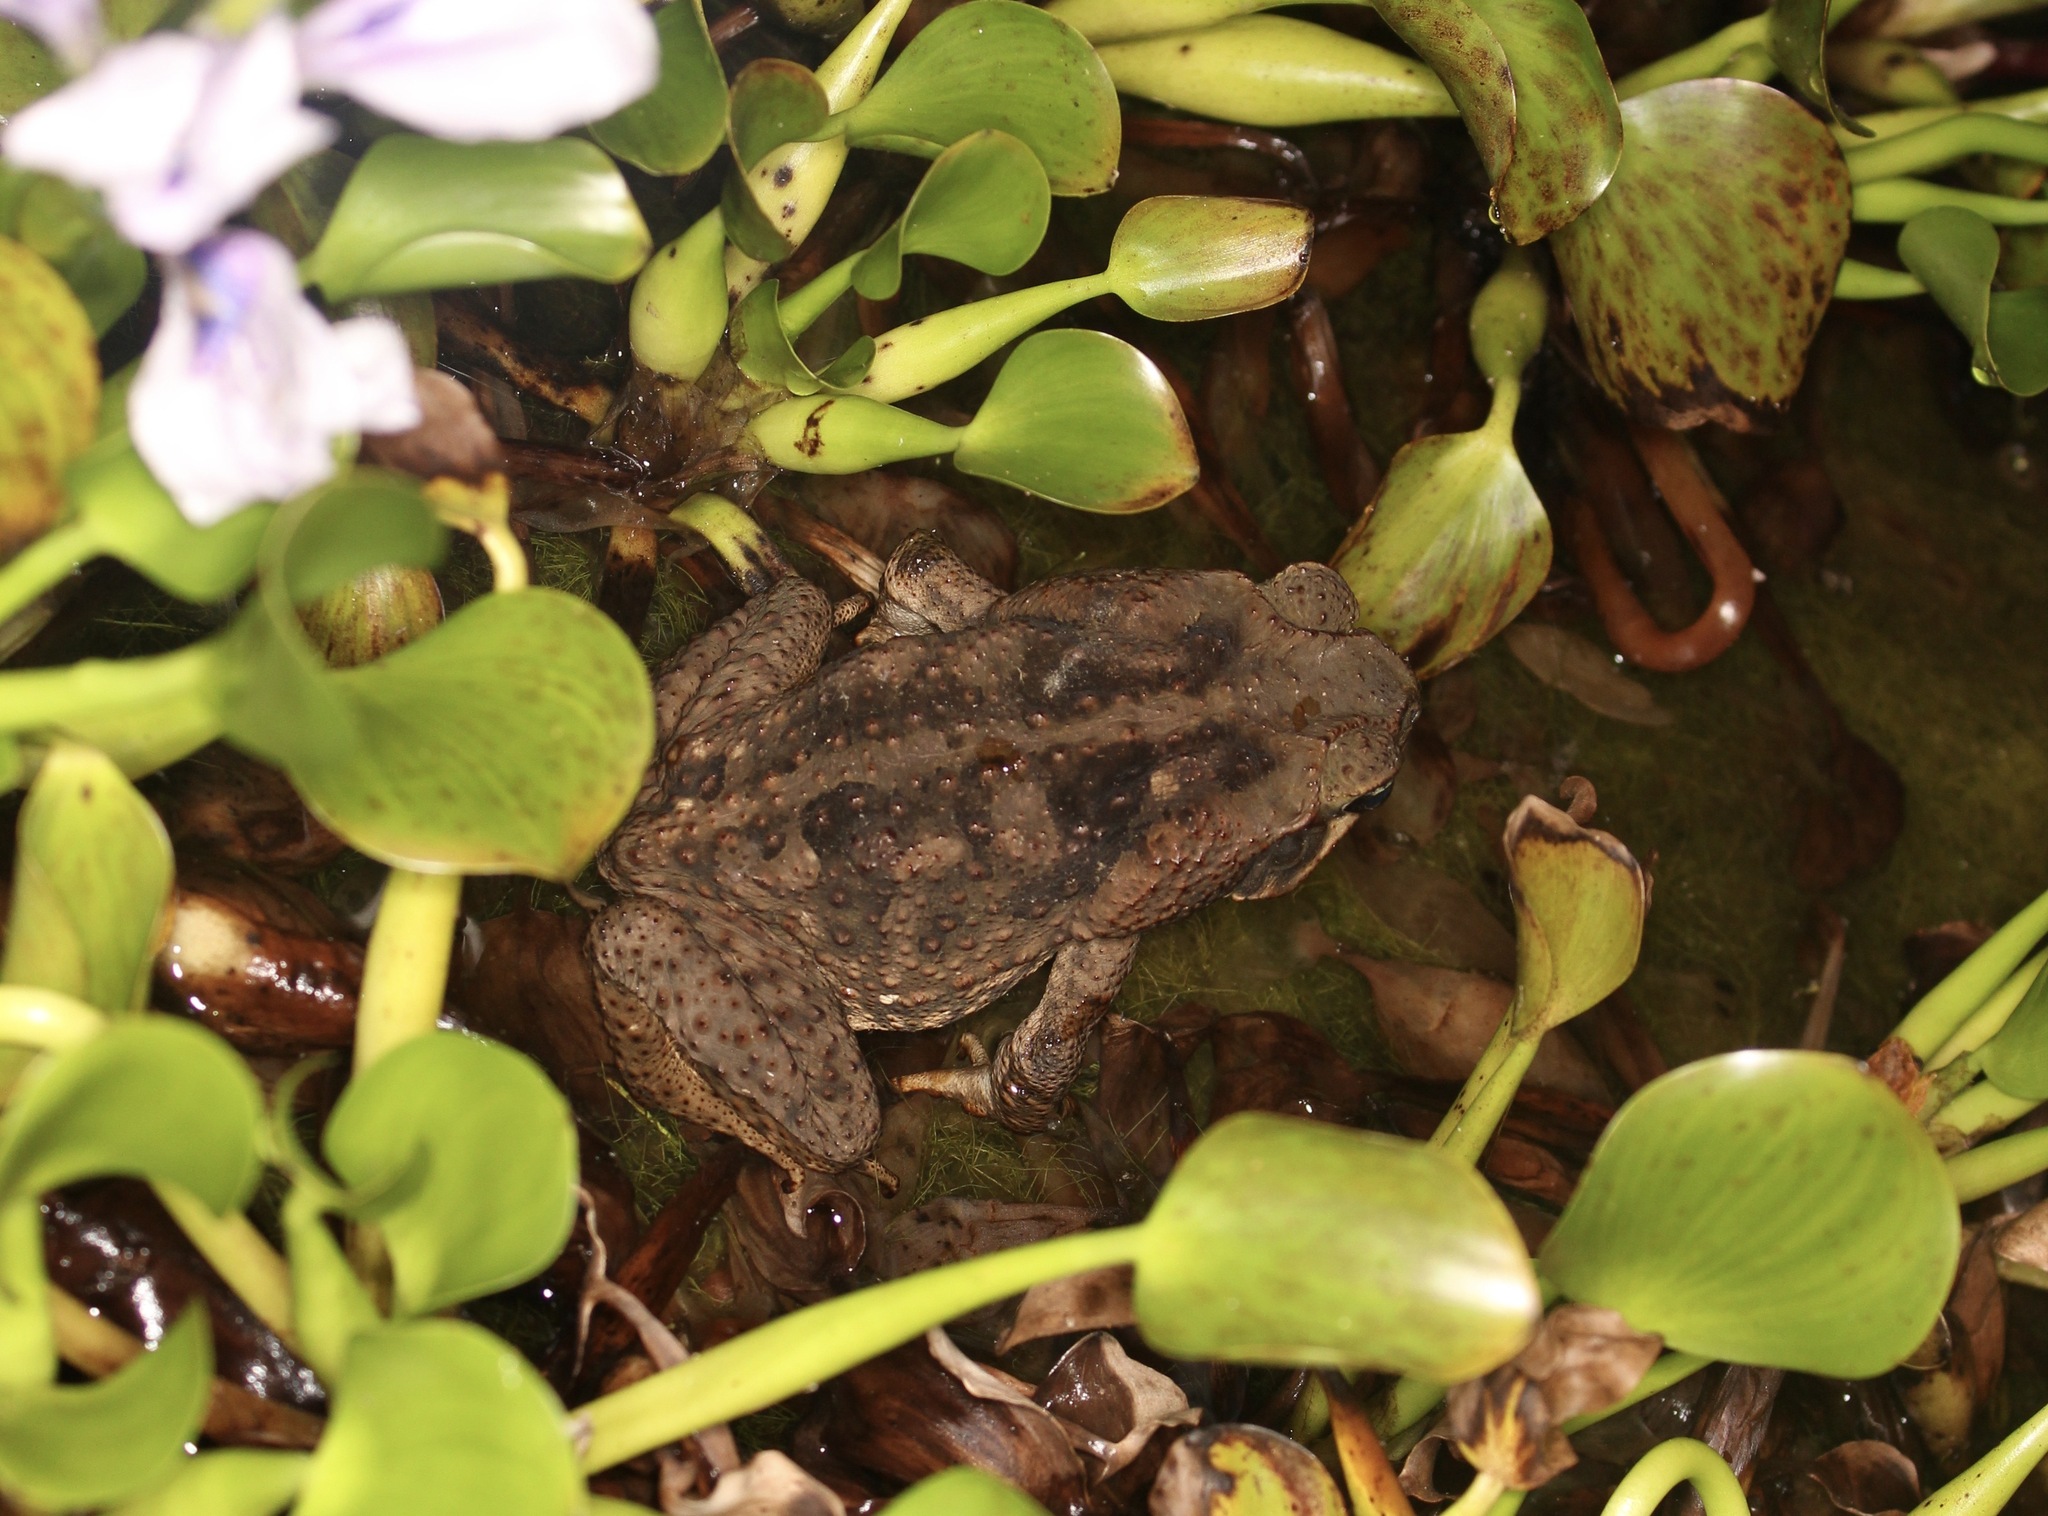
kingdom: Animalia
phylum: Chordata
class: Amphibia
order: Anura
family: Bufonidae
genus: Rhinella
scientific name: Rhinella horribilis
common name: Mesoamerican cane toad
